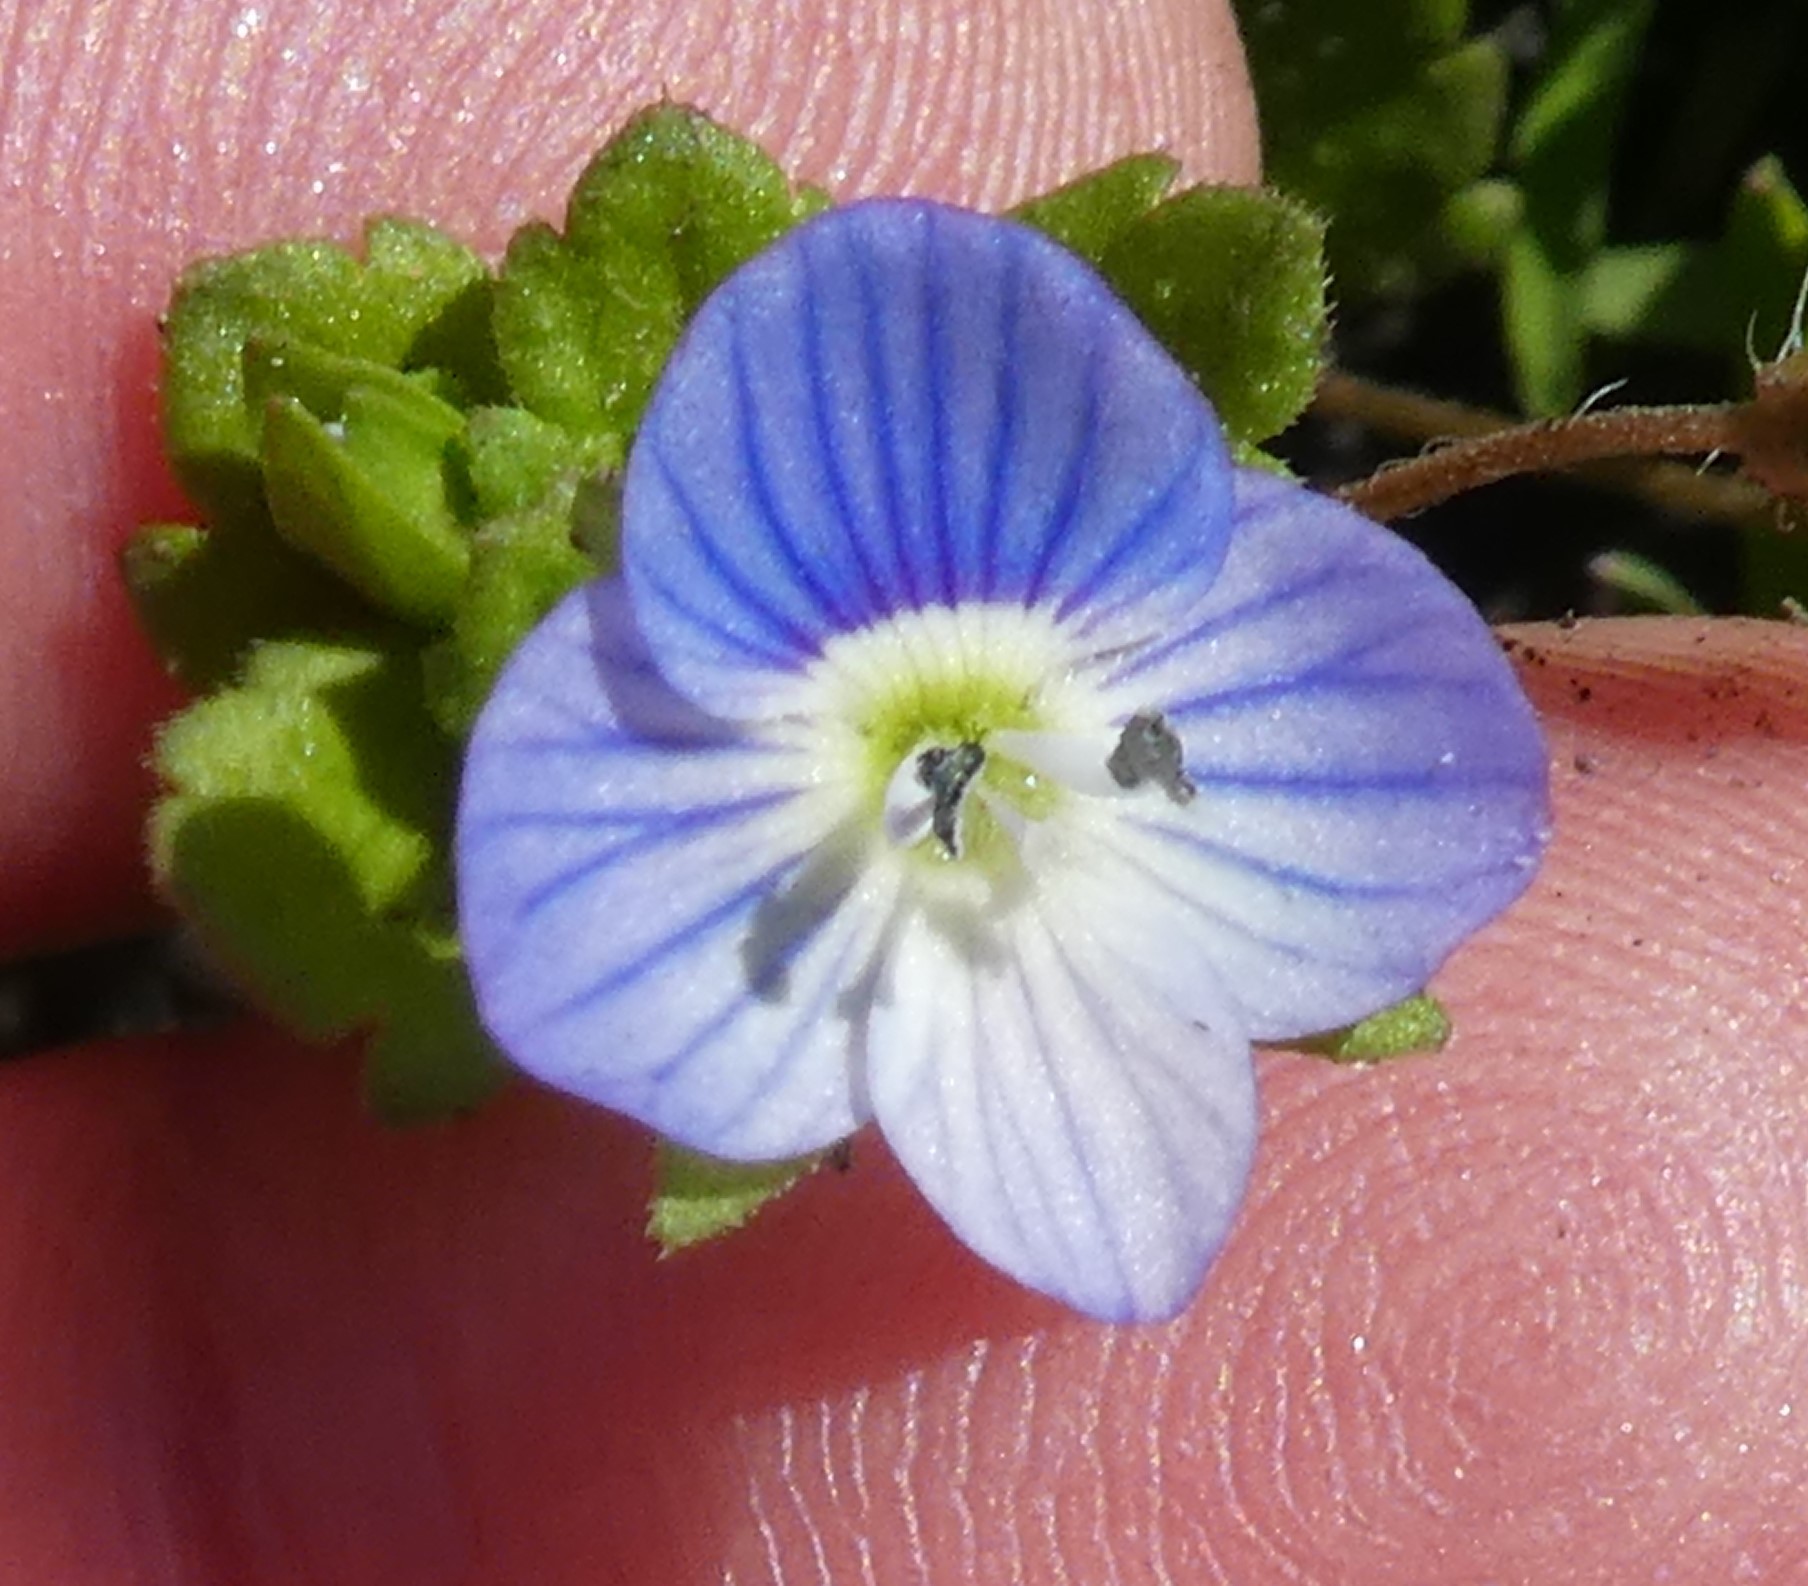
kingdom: Plantae
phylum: Tracheophyta
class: Magnoliopsida
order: Lamiales
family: Plantaginaceae
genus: Veronica
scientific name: Veronica persica
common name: Common field-speedwell
